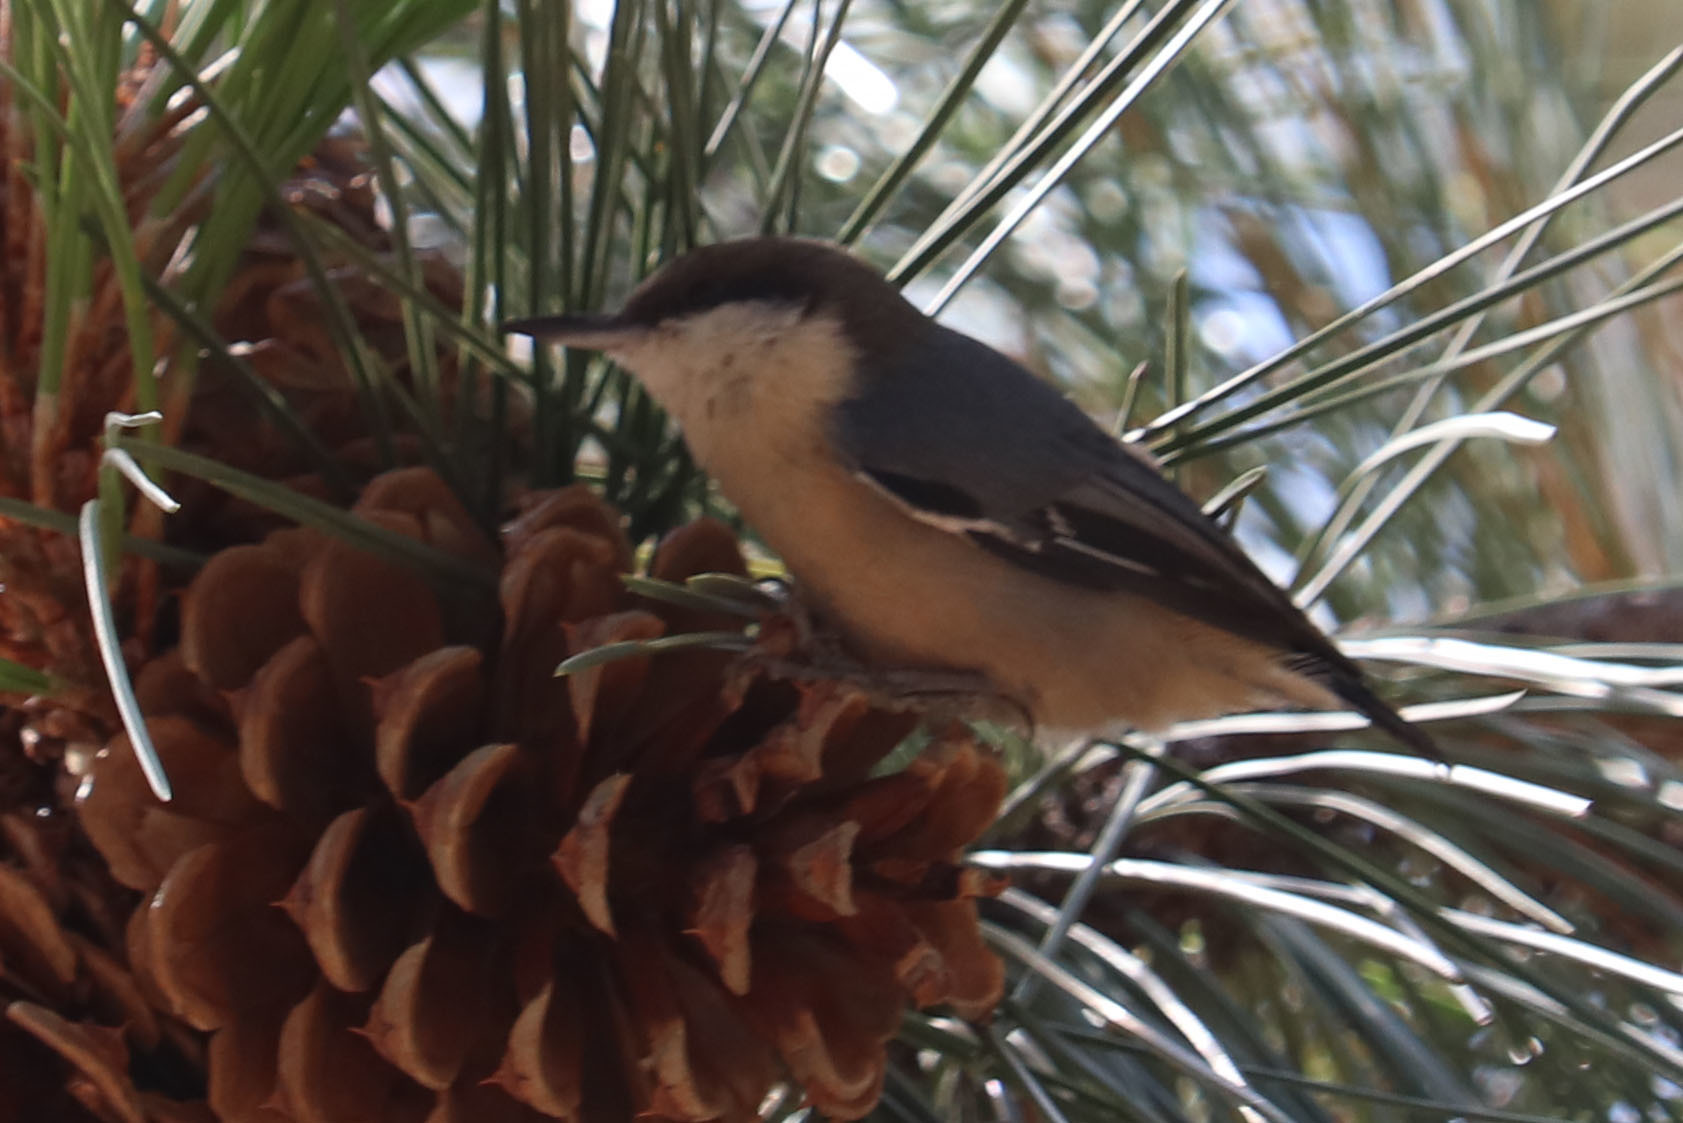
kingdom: Animalia
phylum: Chordata
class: Aves
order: Passeriformes
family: Sittidae
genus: Sitta
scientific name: Sitta pygmaea
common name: Pygmy nuthatch
